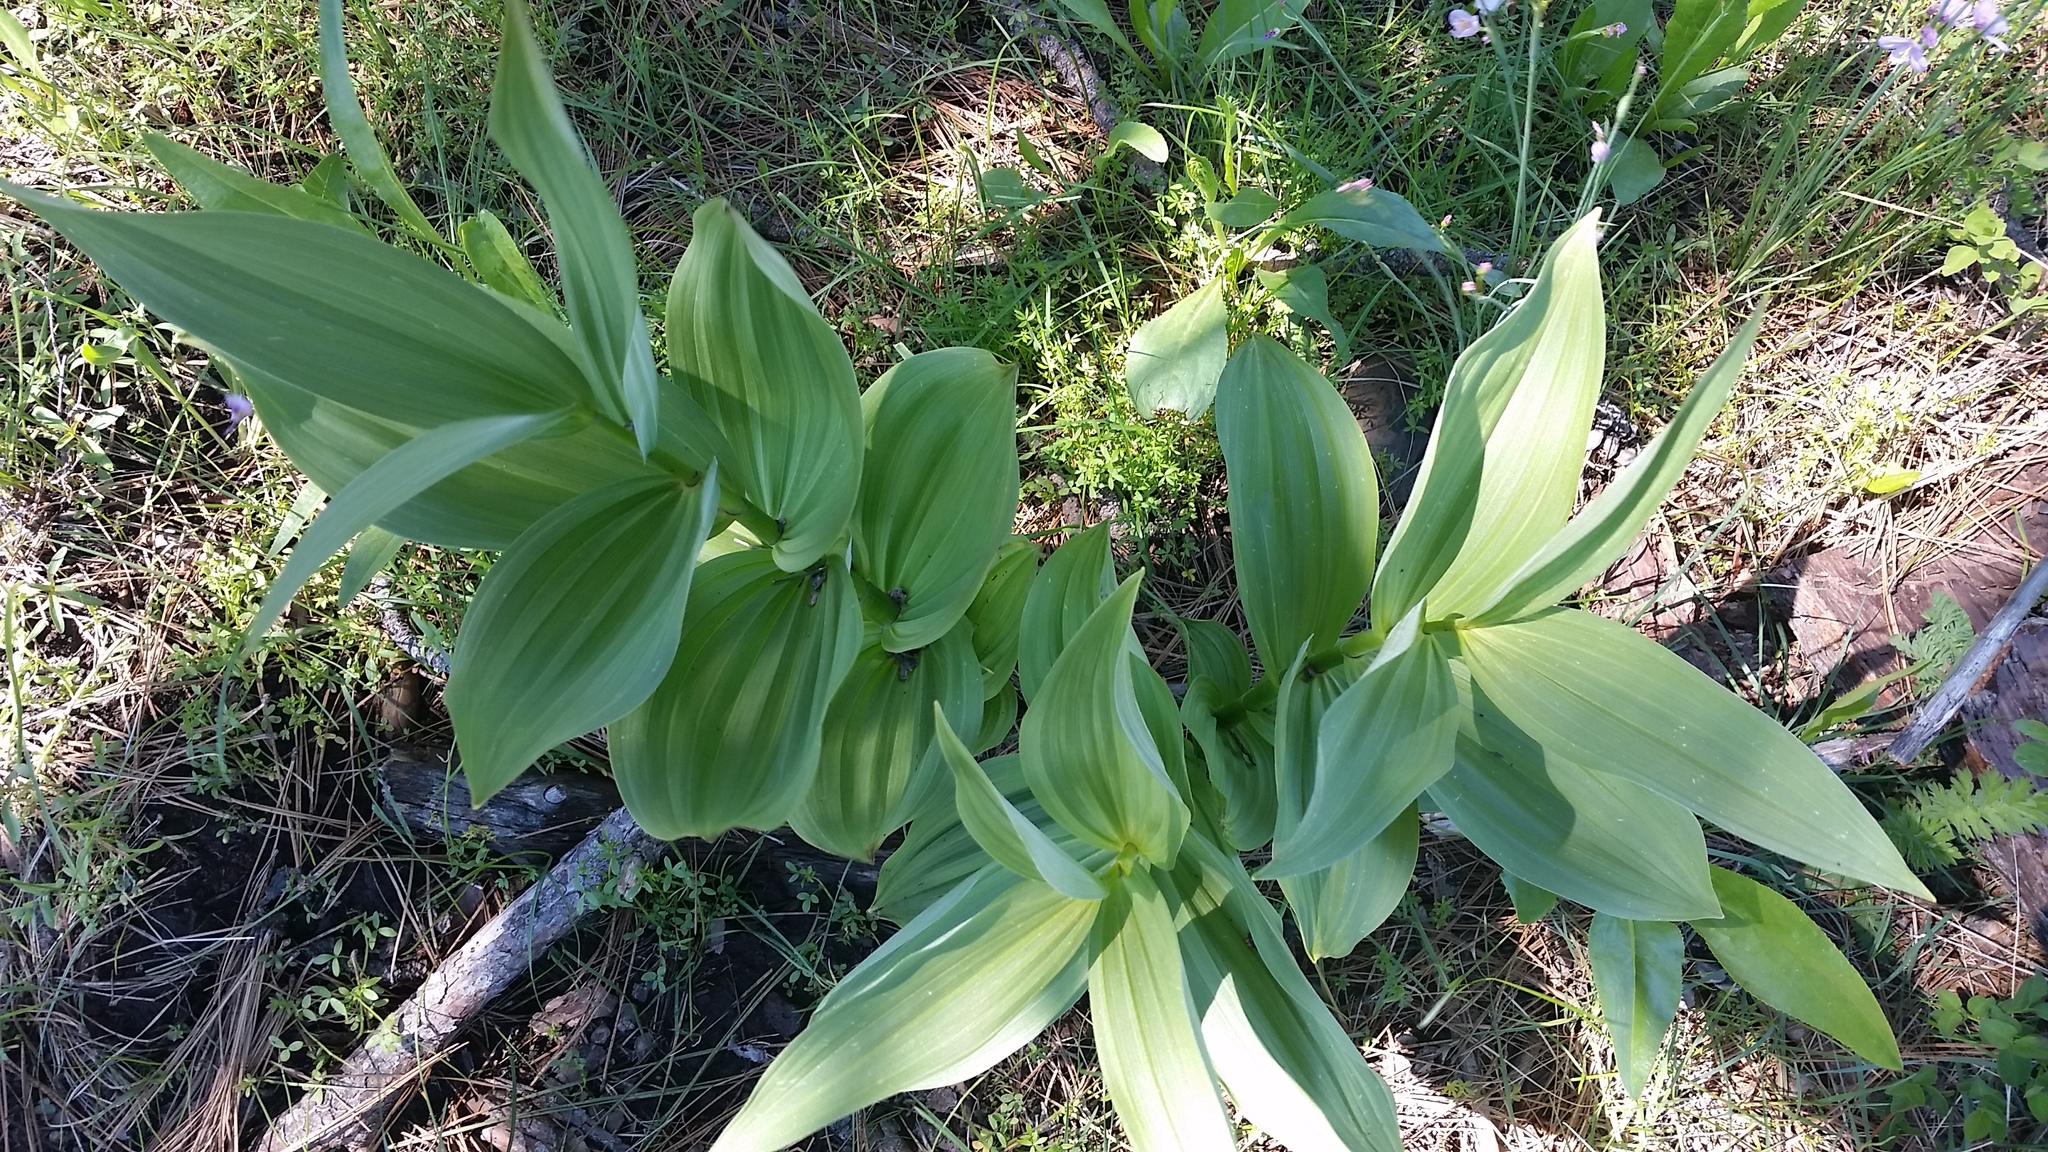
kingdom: Plantae
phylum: Tracheophyta
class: Liliopsida
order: Liliales
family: Melanthiaceae
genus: Veratrum
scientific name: Veratrum californicum
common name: California veratrum
